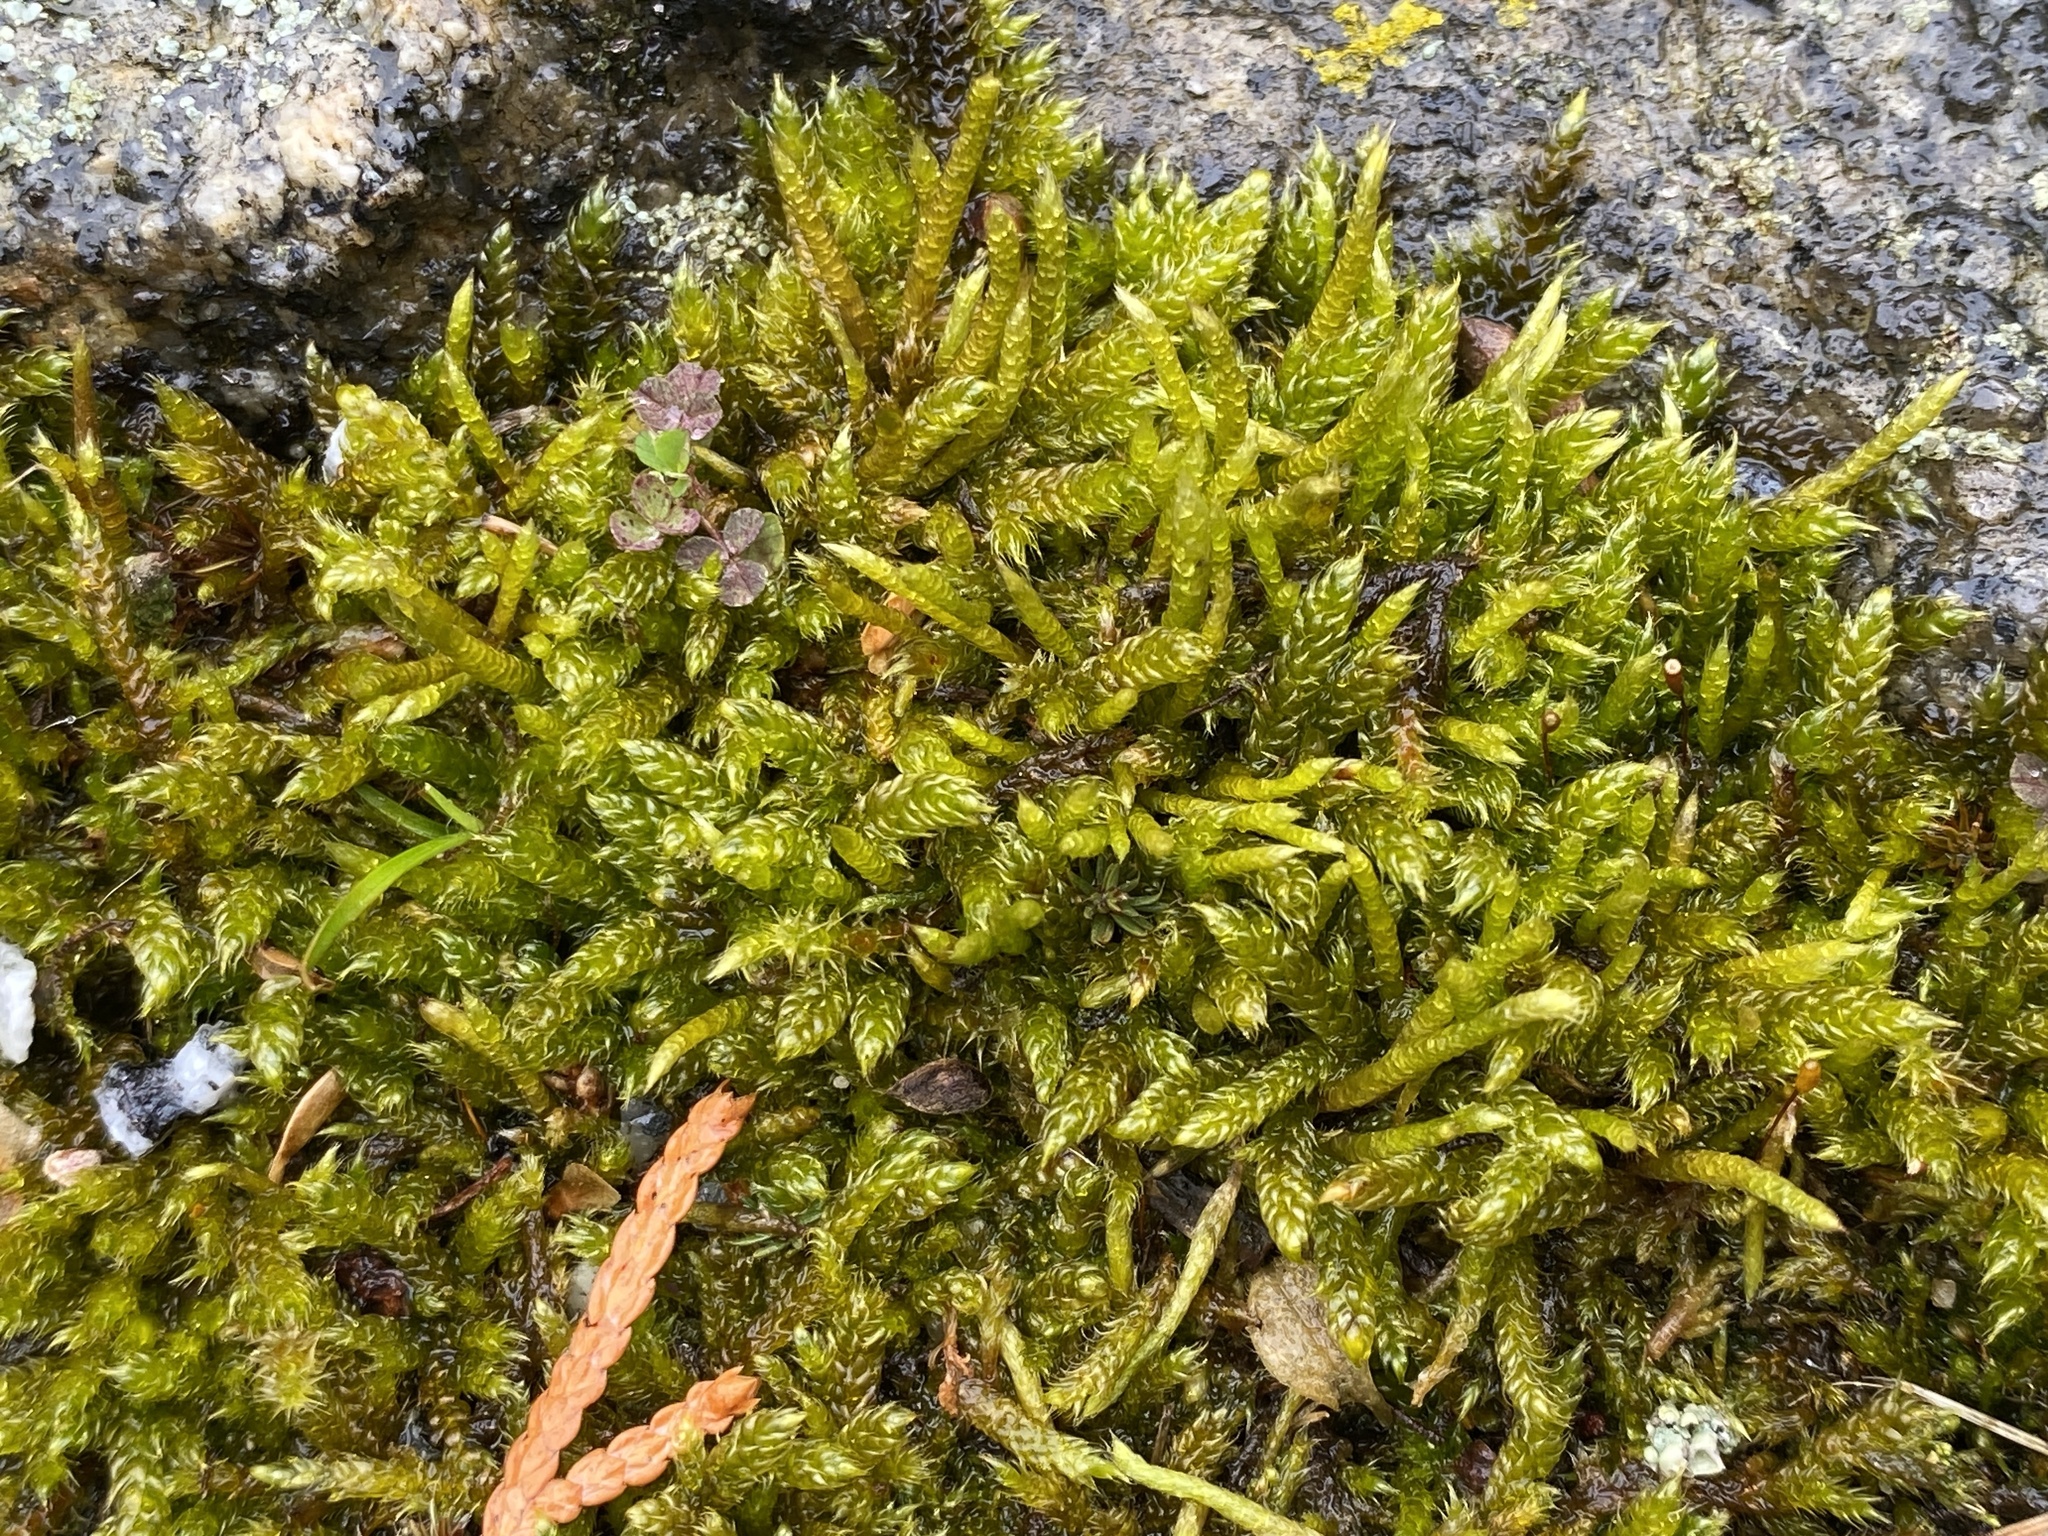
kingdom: Plantae
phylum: Bryophyta
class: Bryopsida
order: Hypnales
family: Hypnaceae
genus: Hypnum
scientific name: Hypnum cupressiforme
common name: Cypress-leaved plait-moss
